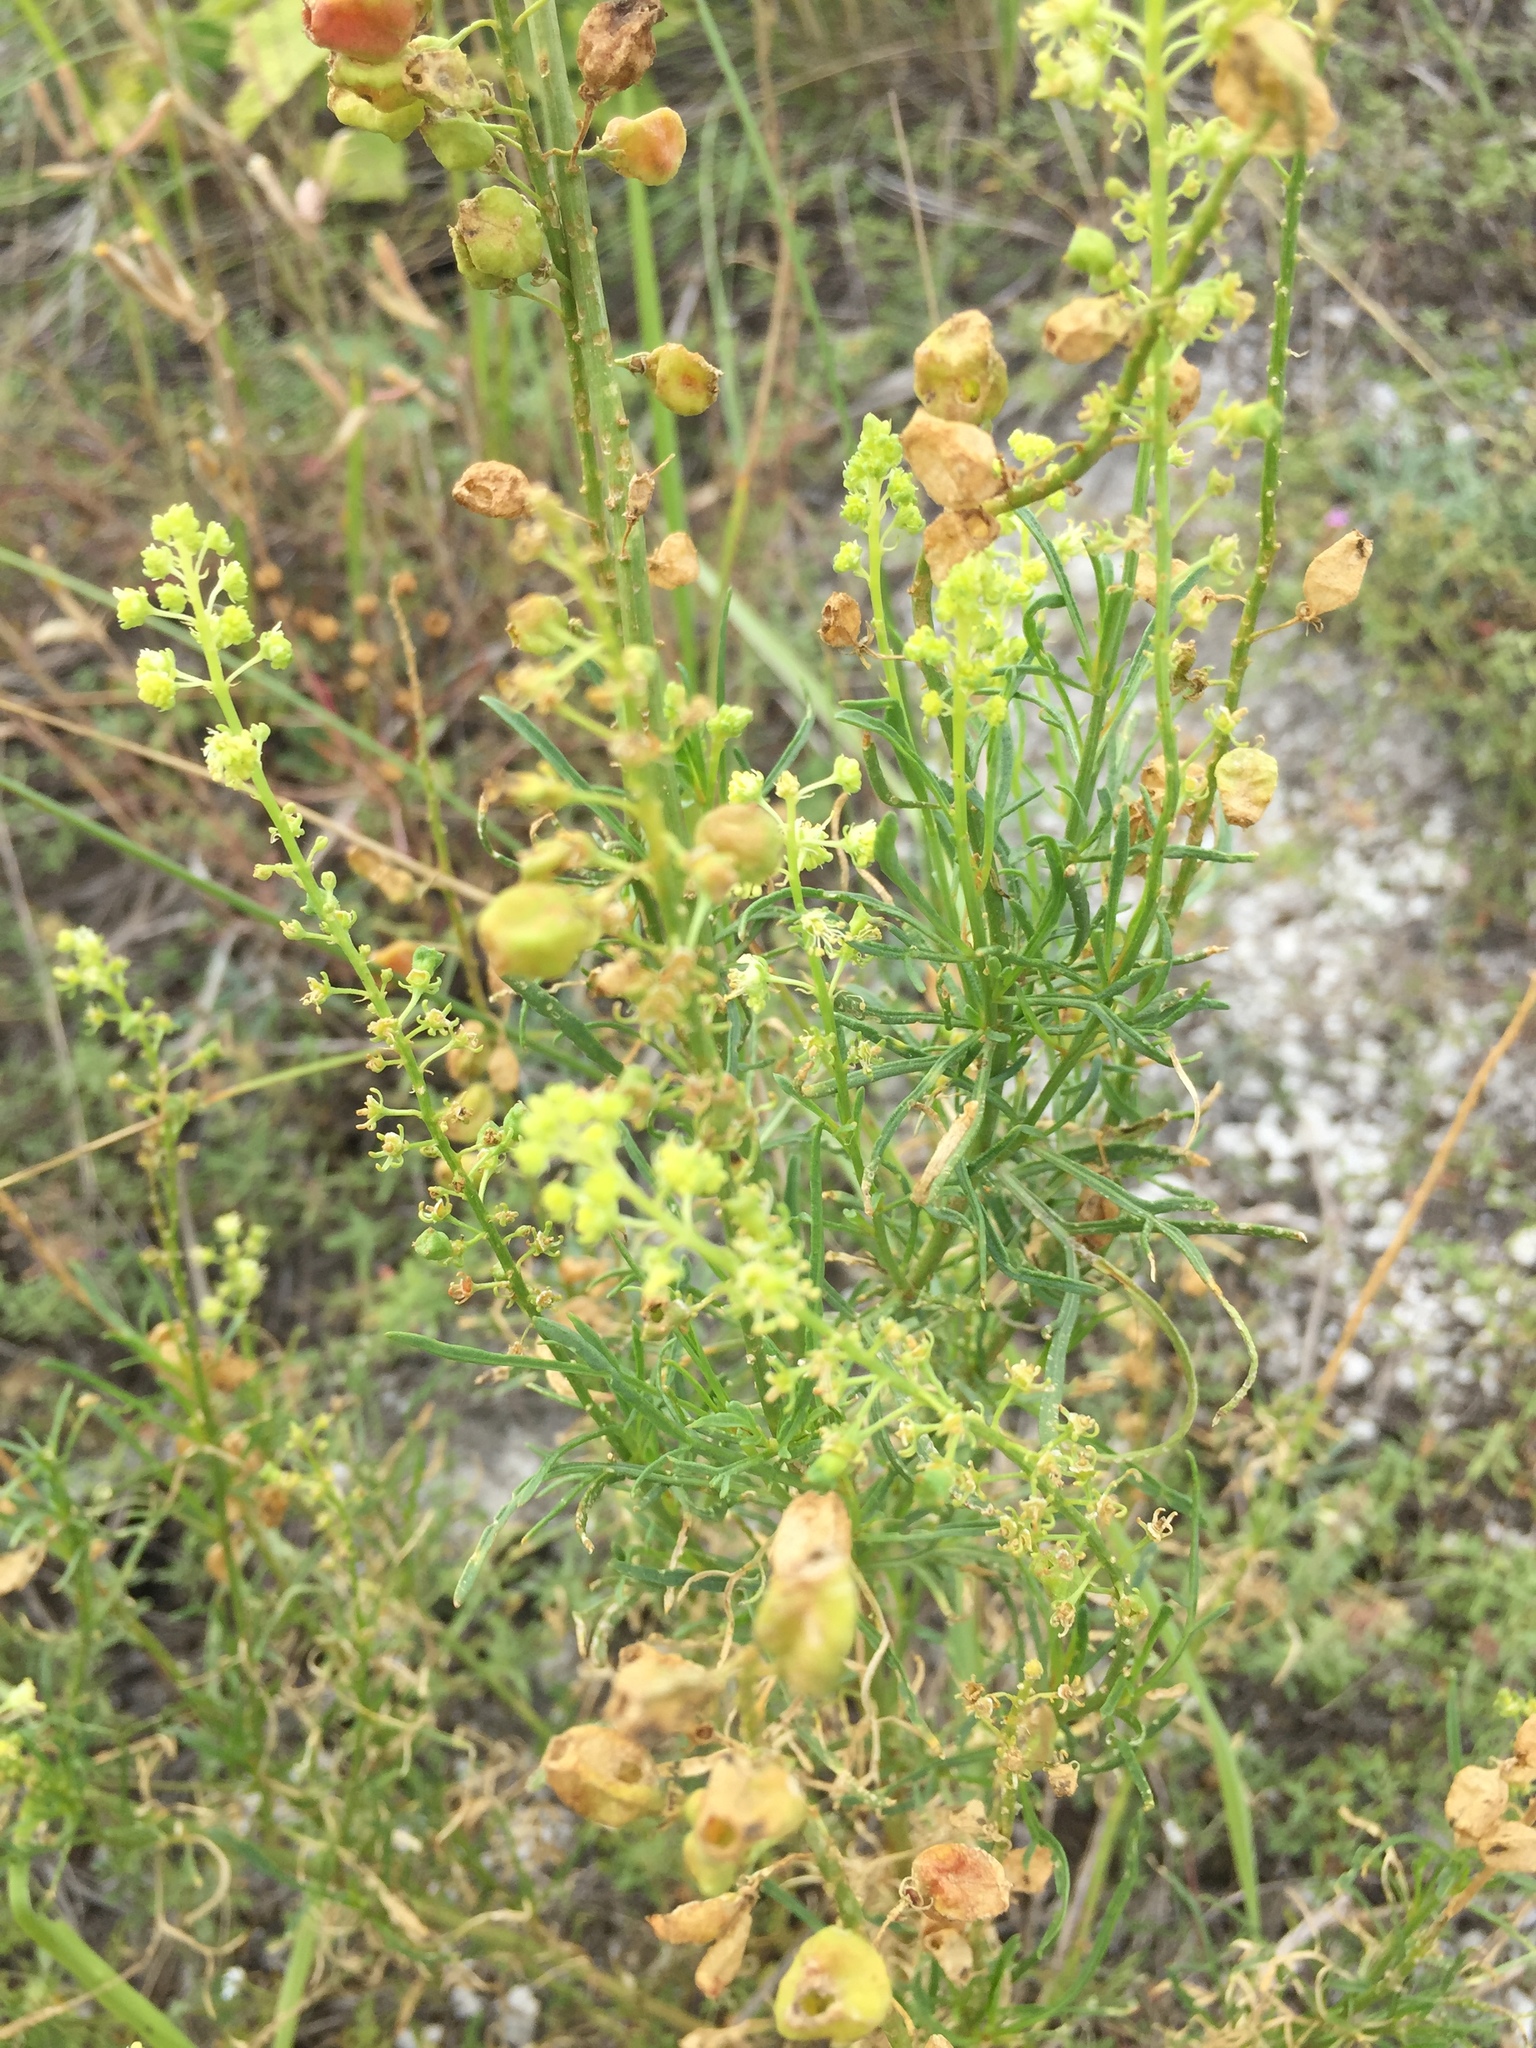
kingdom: Plantae
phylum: Tracheophyta
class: Magnoliopsida
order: Brassicales
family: Resedaceae
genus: Reseda
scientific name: Reseda lutea
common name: Wild mignonette
